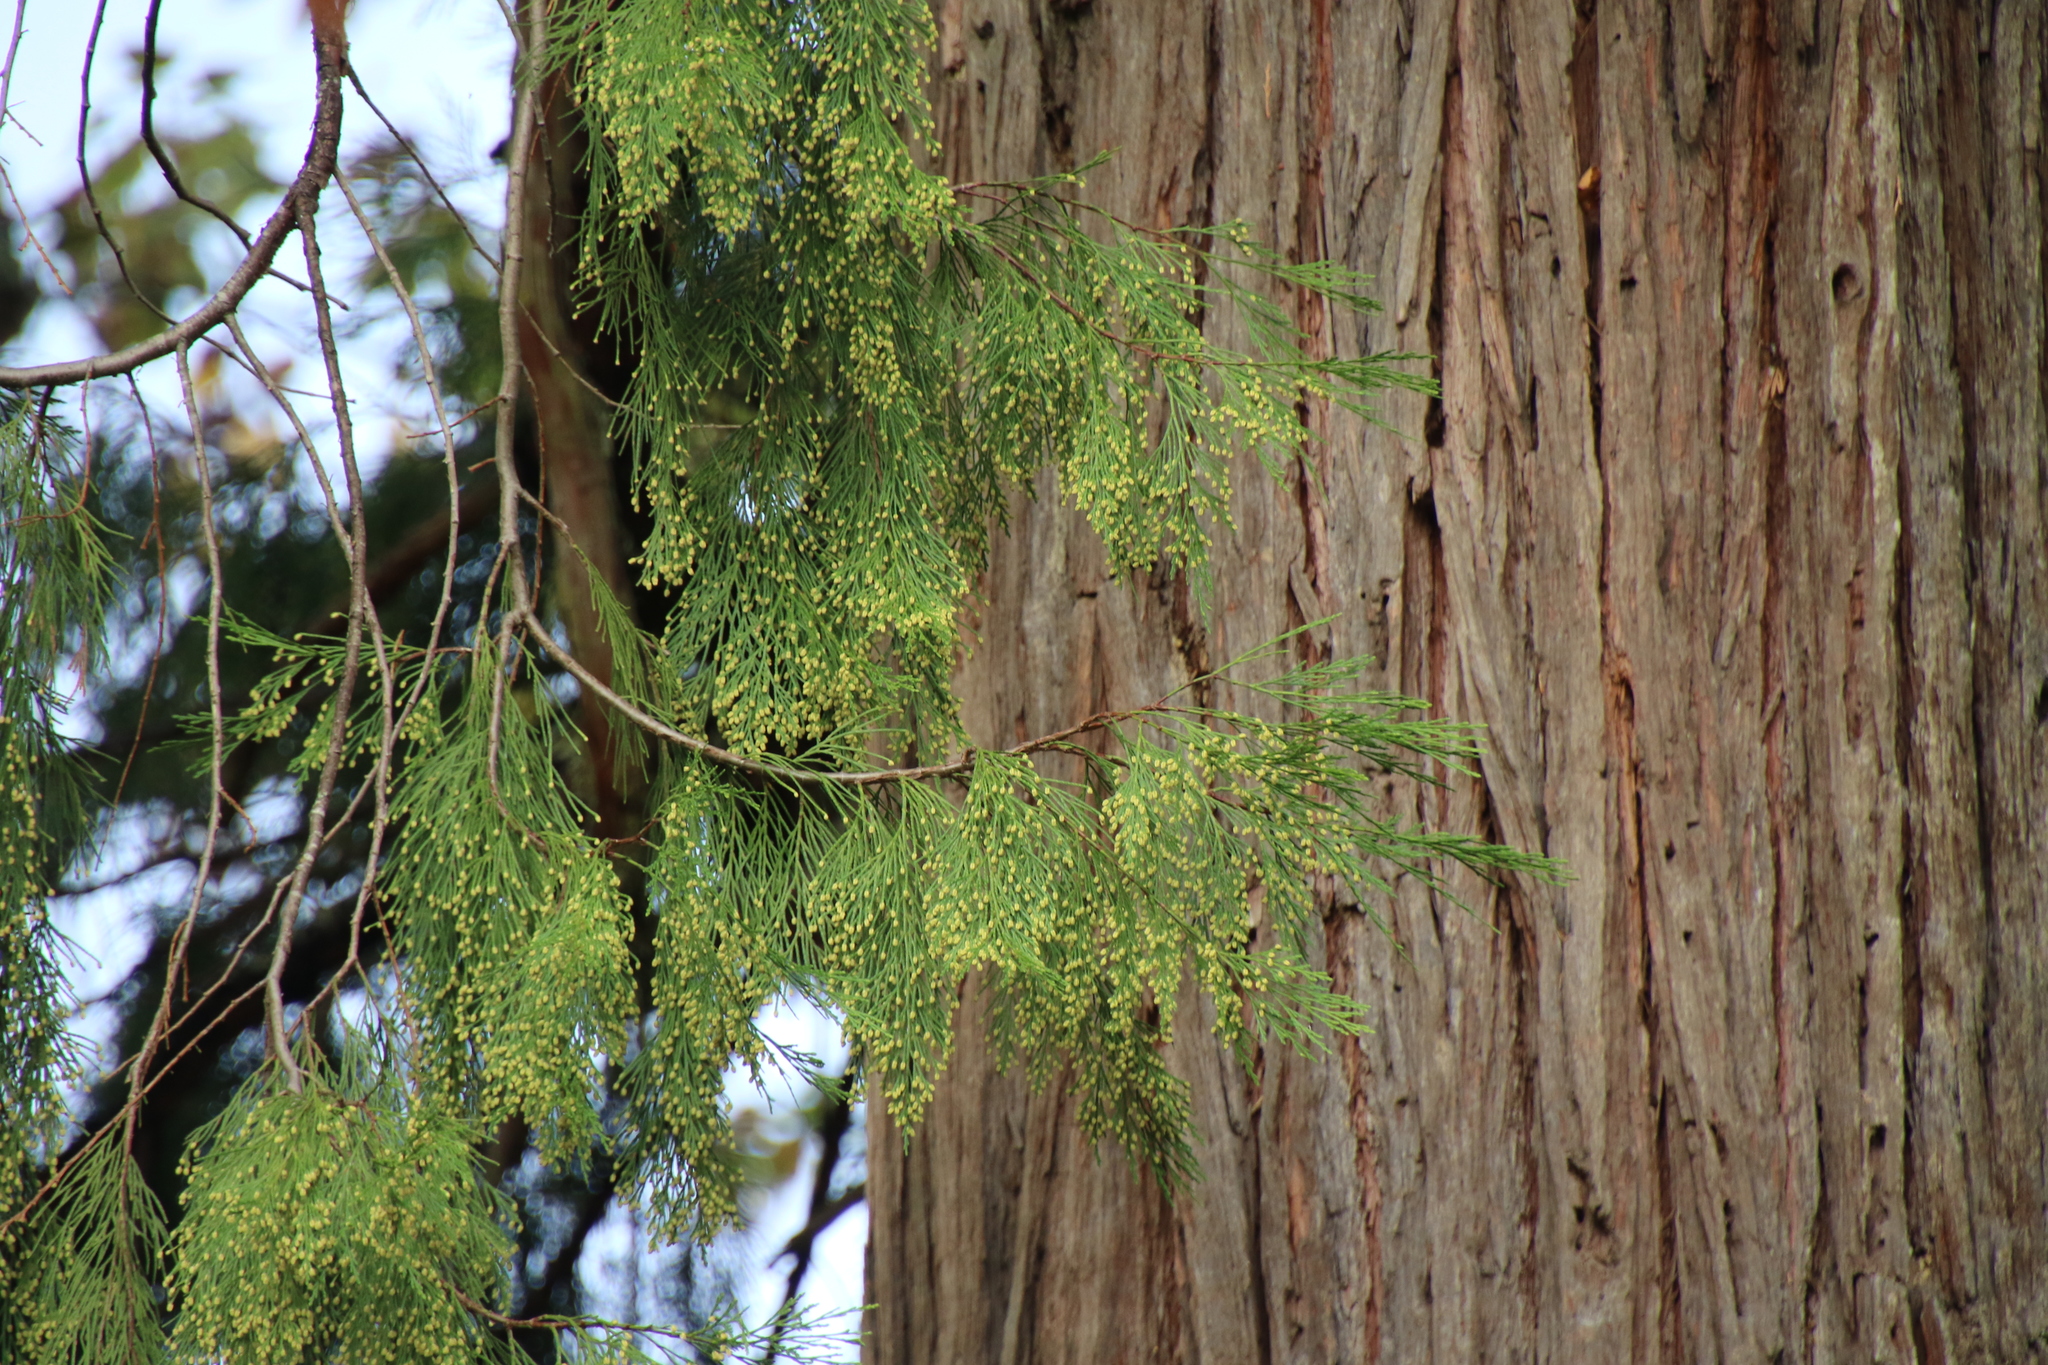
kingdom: Plantae
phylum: Tracheophyta
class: Pinopsida
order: Pinales
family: Cupressaceae
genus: Calocedrus
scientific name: Calocedrus decurrens
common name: Californian incense-cedar
